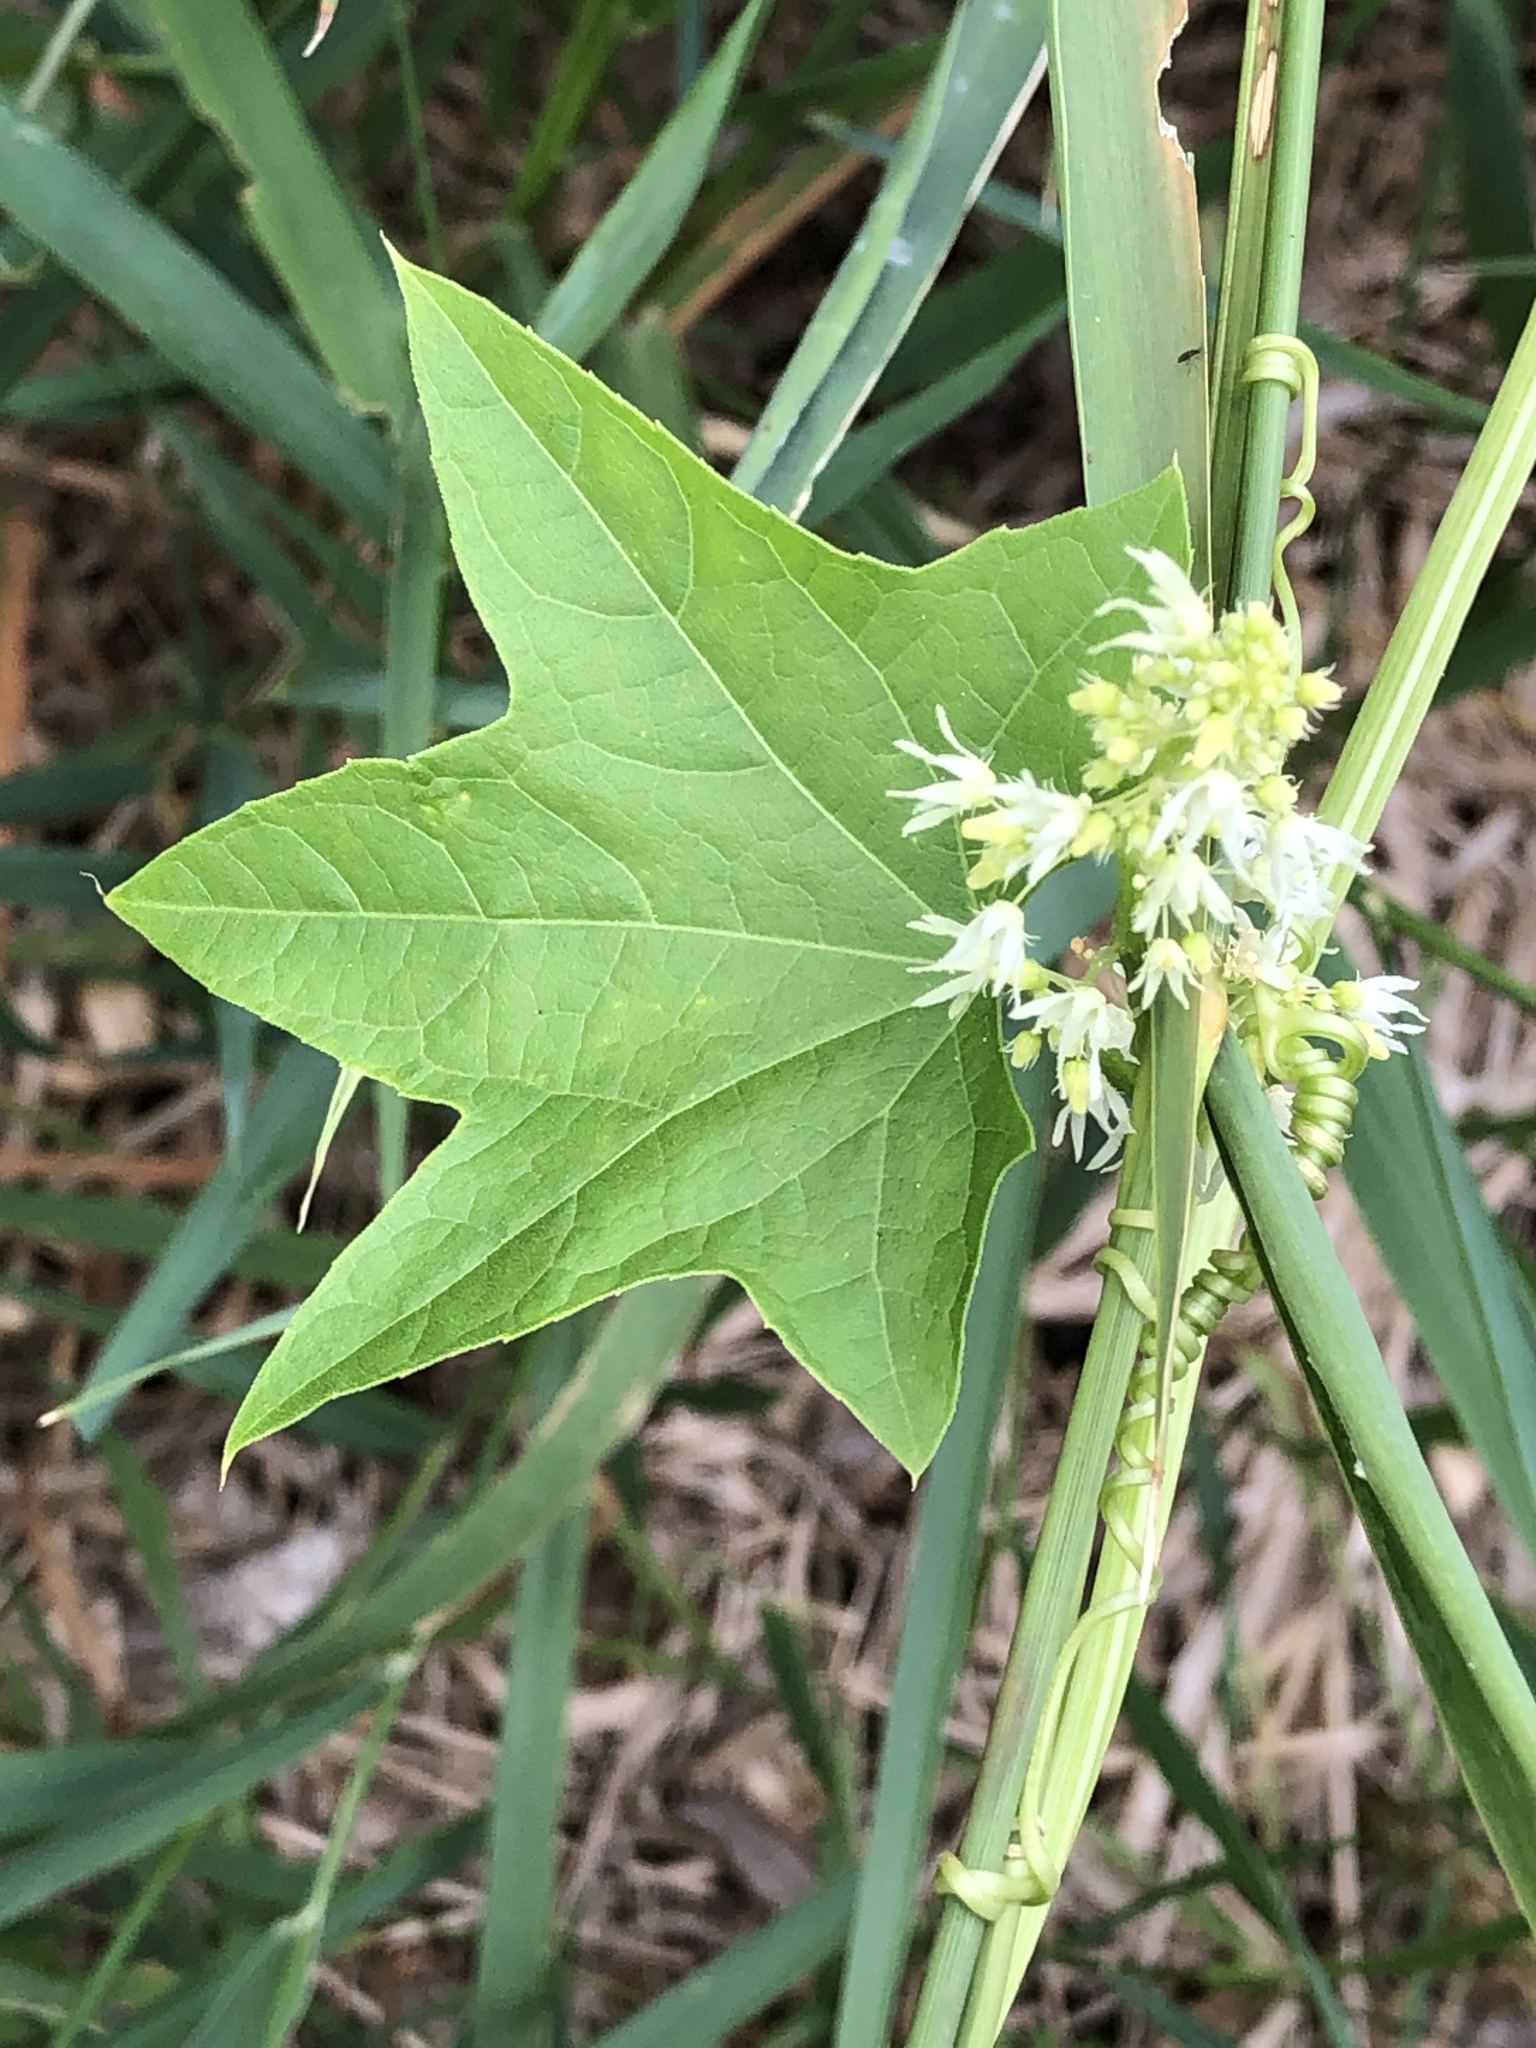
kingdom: Plantae
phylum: Tracheophyta
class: Magnoliopsida
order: Cucurbitales
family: Cucurbitaceae
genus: Echinocystis
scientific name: Echinocystis lobata
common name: Wild cucumber
